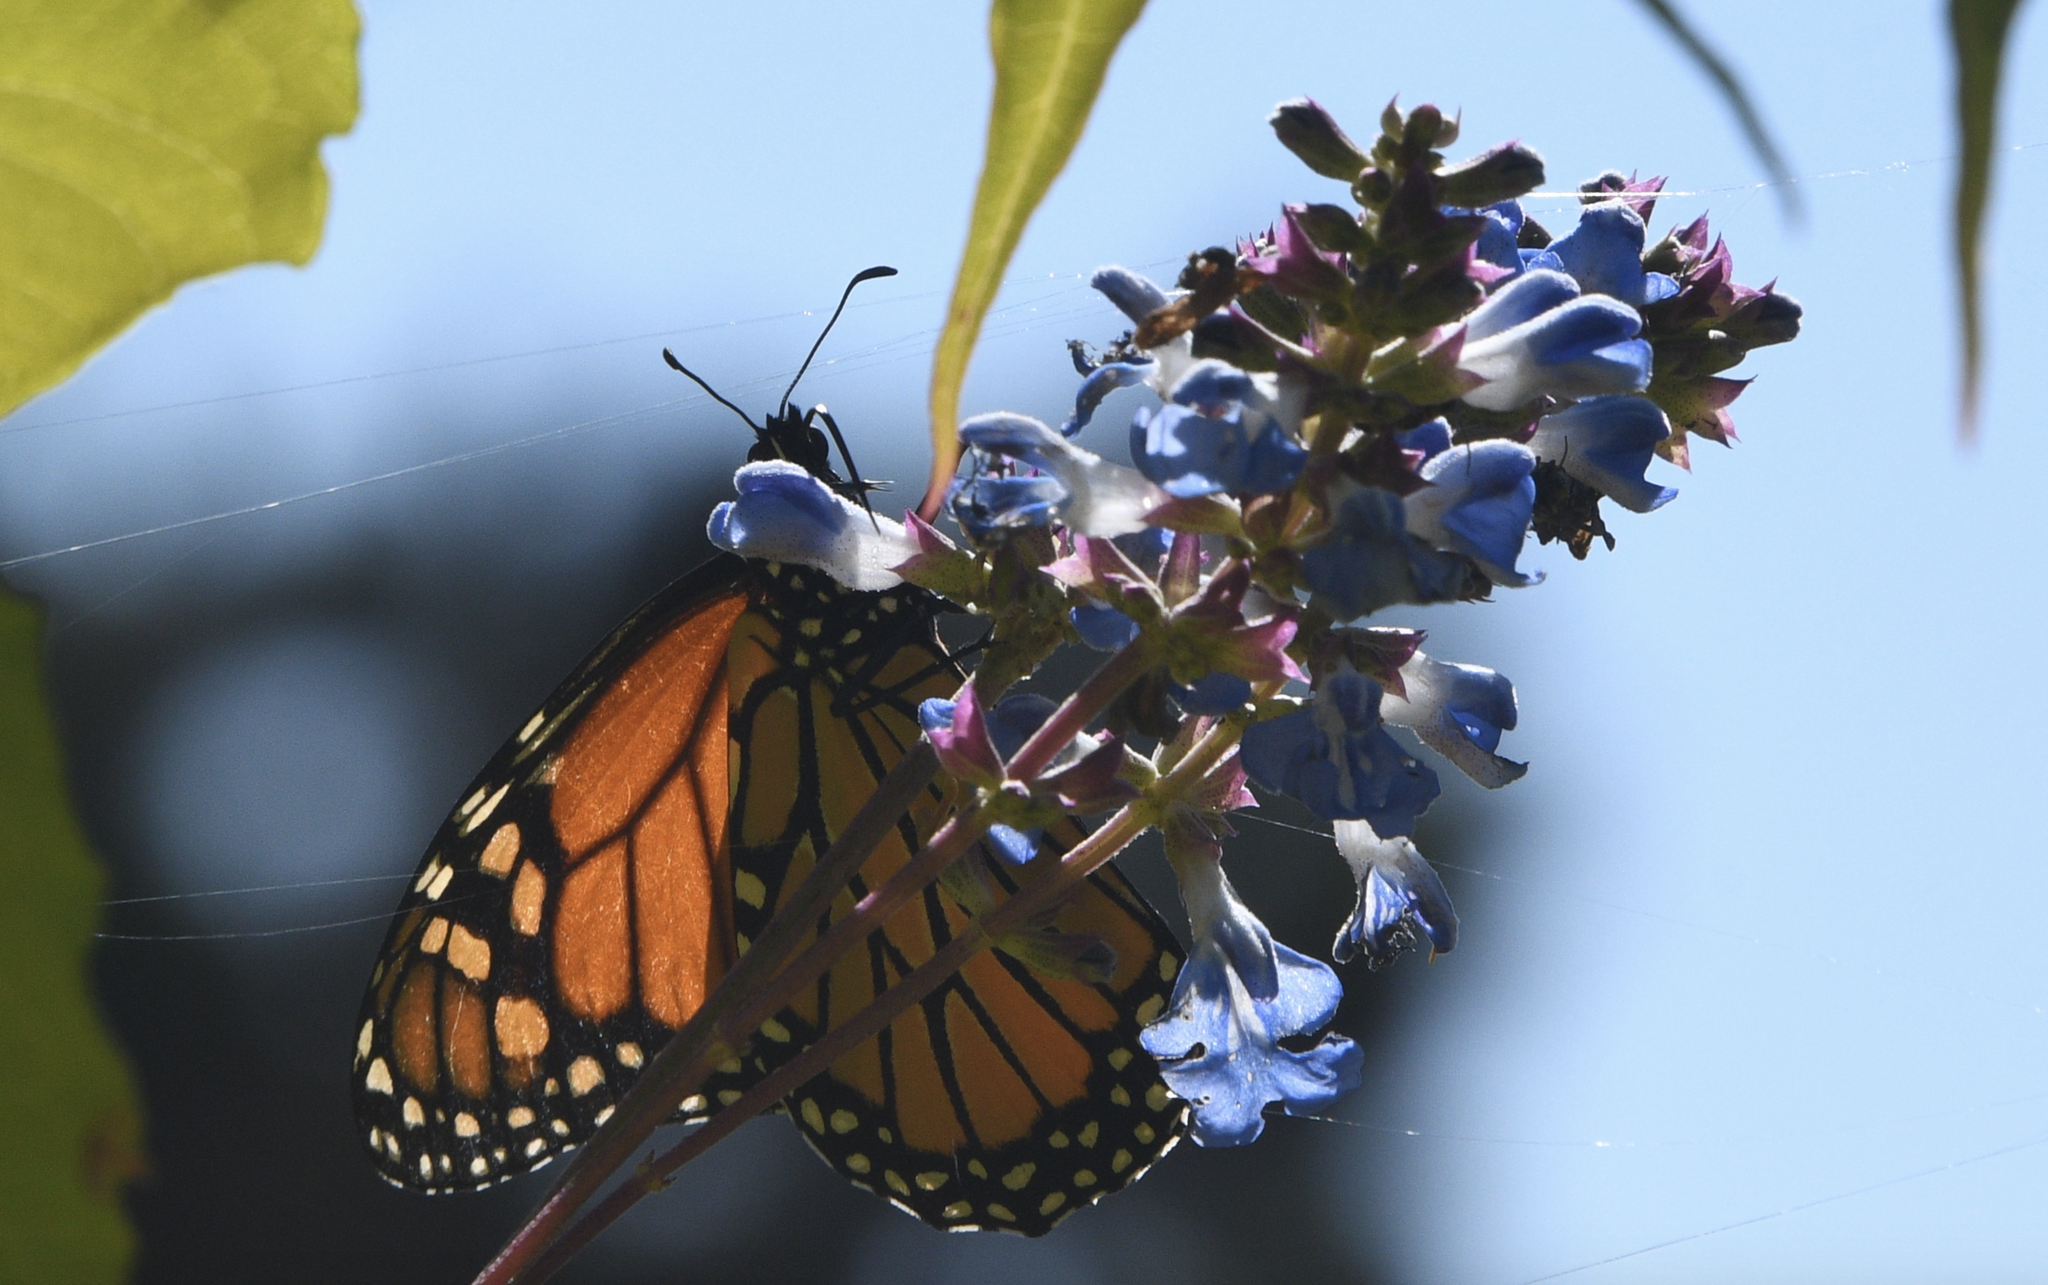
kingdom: Animalia
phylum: Arthropoda
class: Insecta
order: Lepidoptera
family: Nymphalidae
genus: Danaus
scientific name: Danaus plexippus
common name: Monarch
